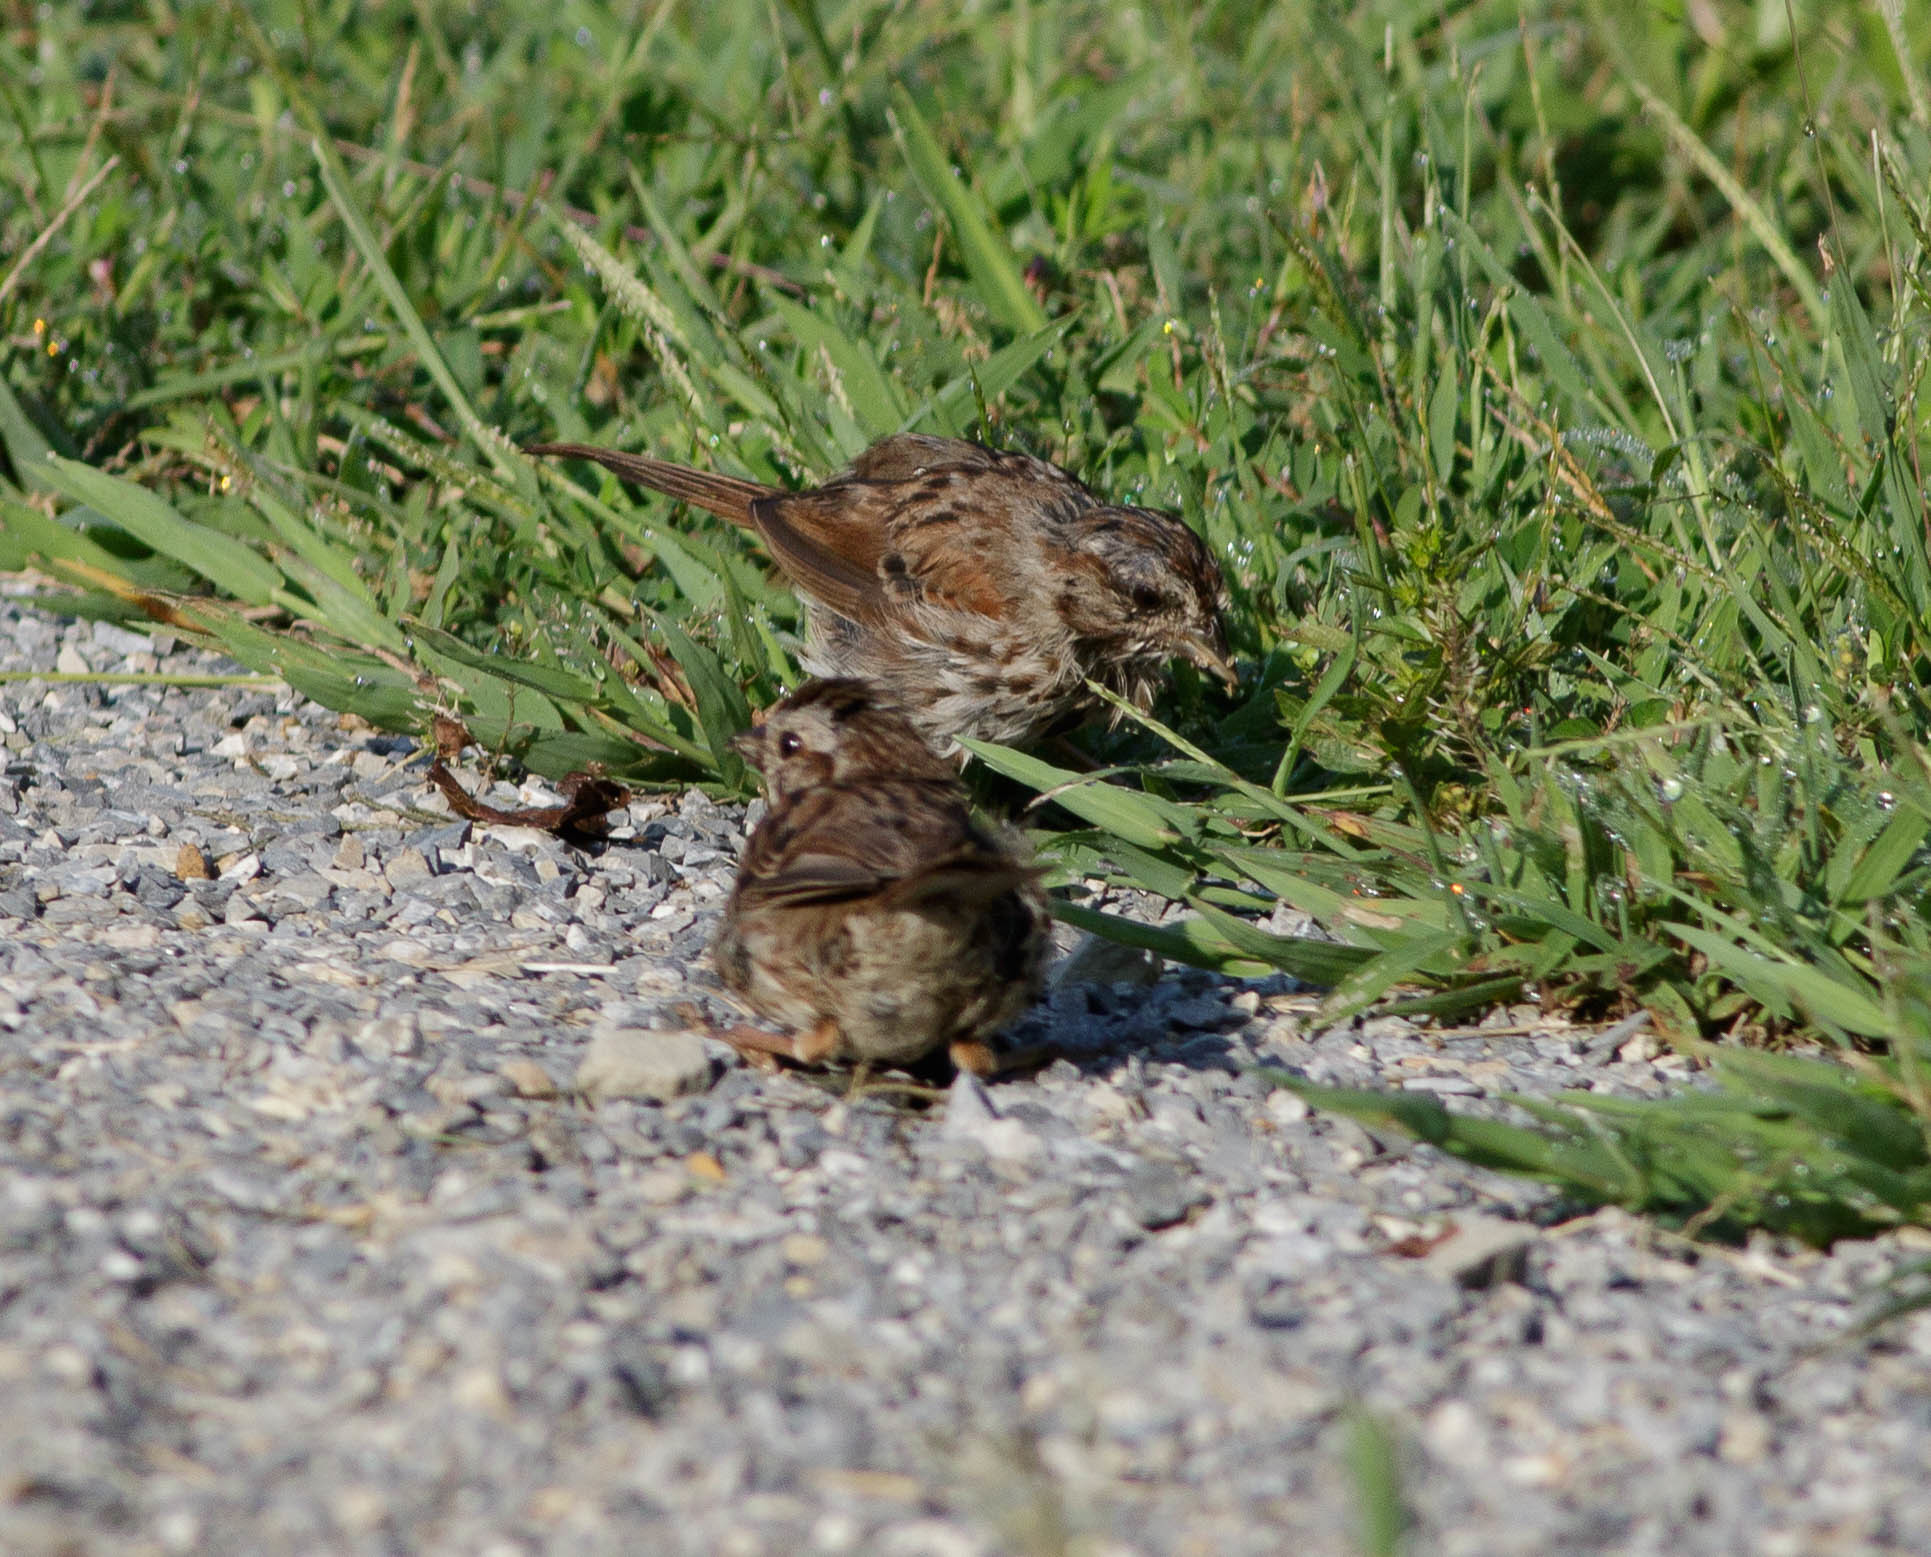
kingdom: Animalia
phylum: Chordata
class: Aves
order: Passeriformes
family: Passerellidae
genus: Melospiza
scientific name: Melospiza melodia
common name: Song sparrow
